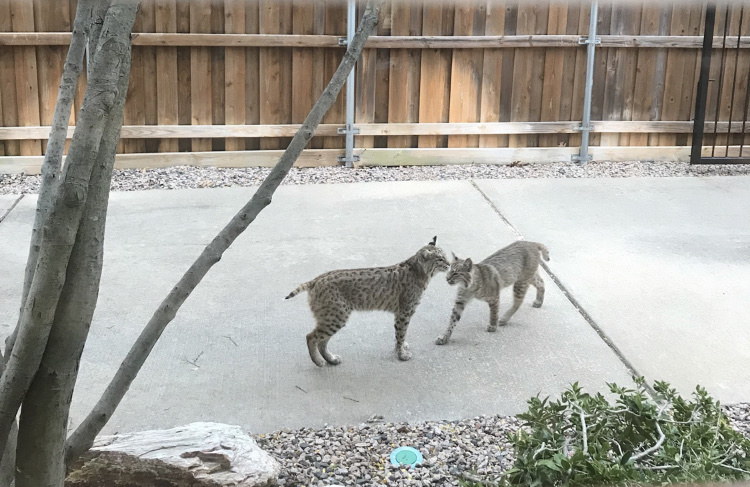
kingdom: Animalia
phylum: Chordata
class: Mammalia
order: Carnivora
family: Felidae
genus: Lynx
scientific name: Lynx rufus
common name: Bobcat
